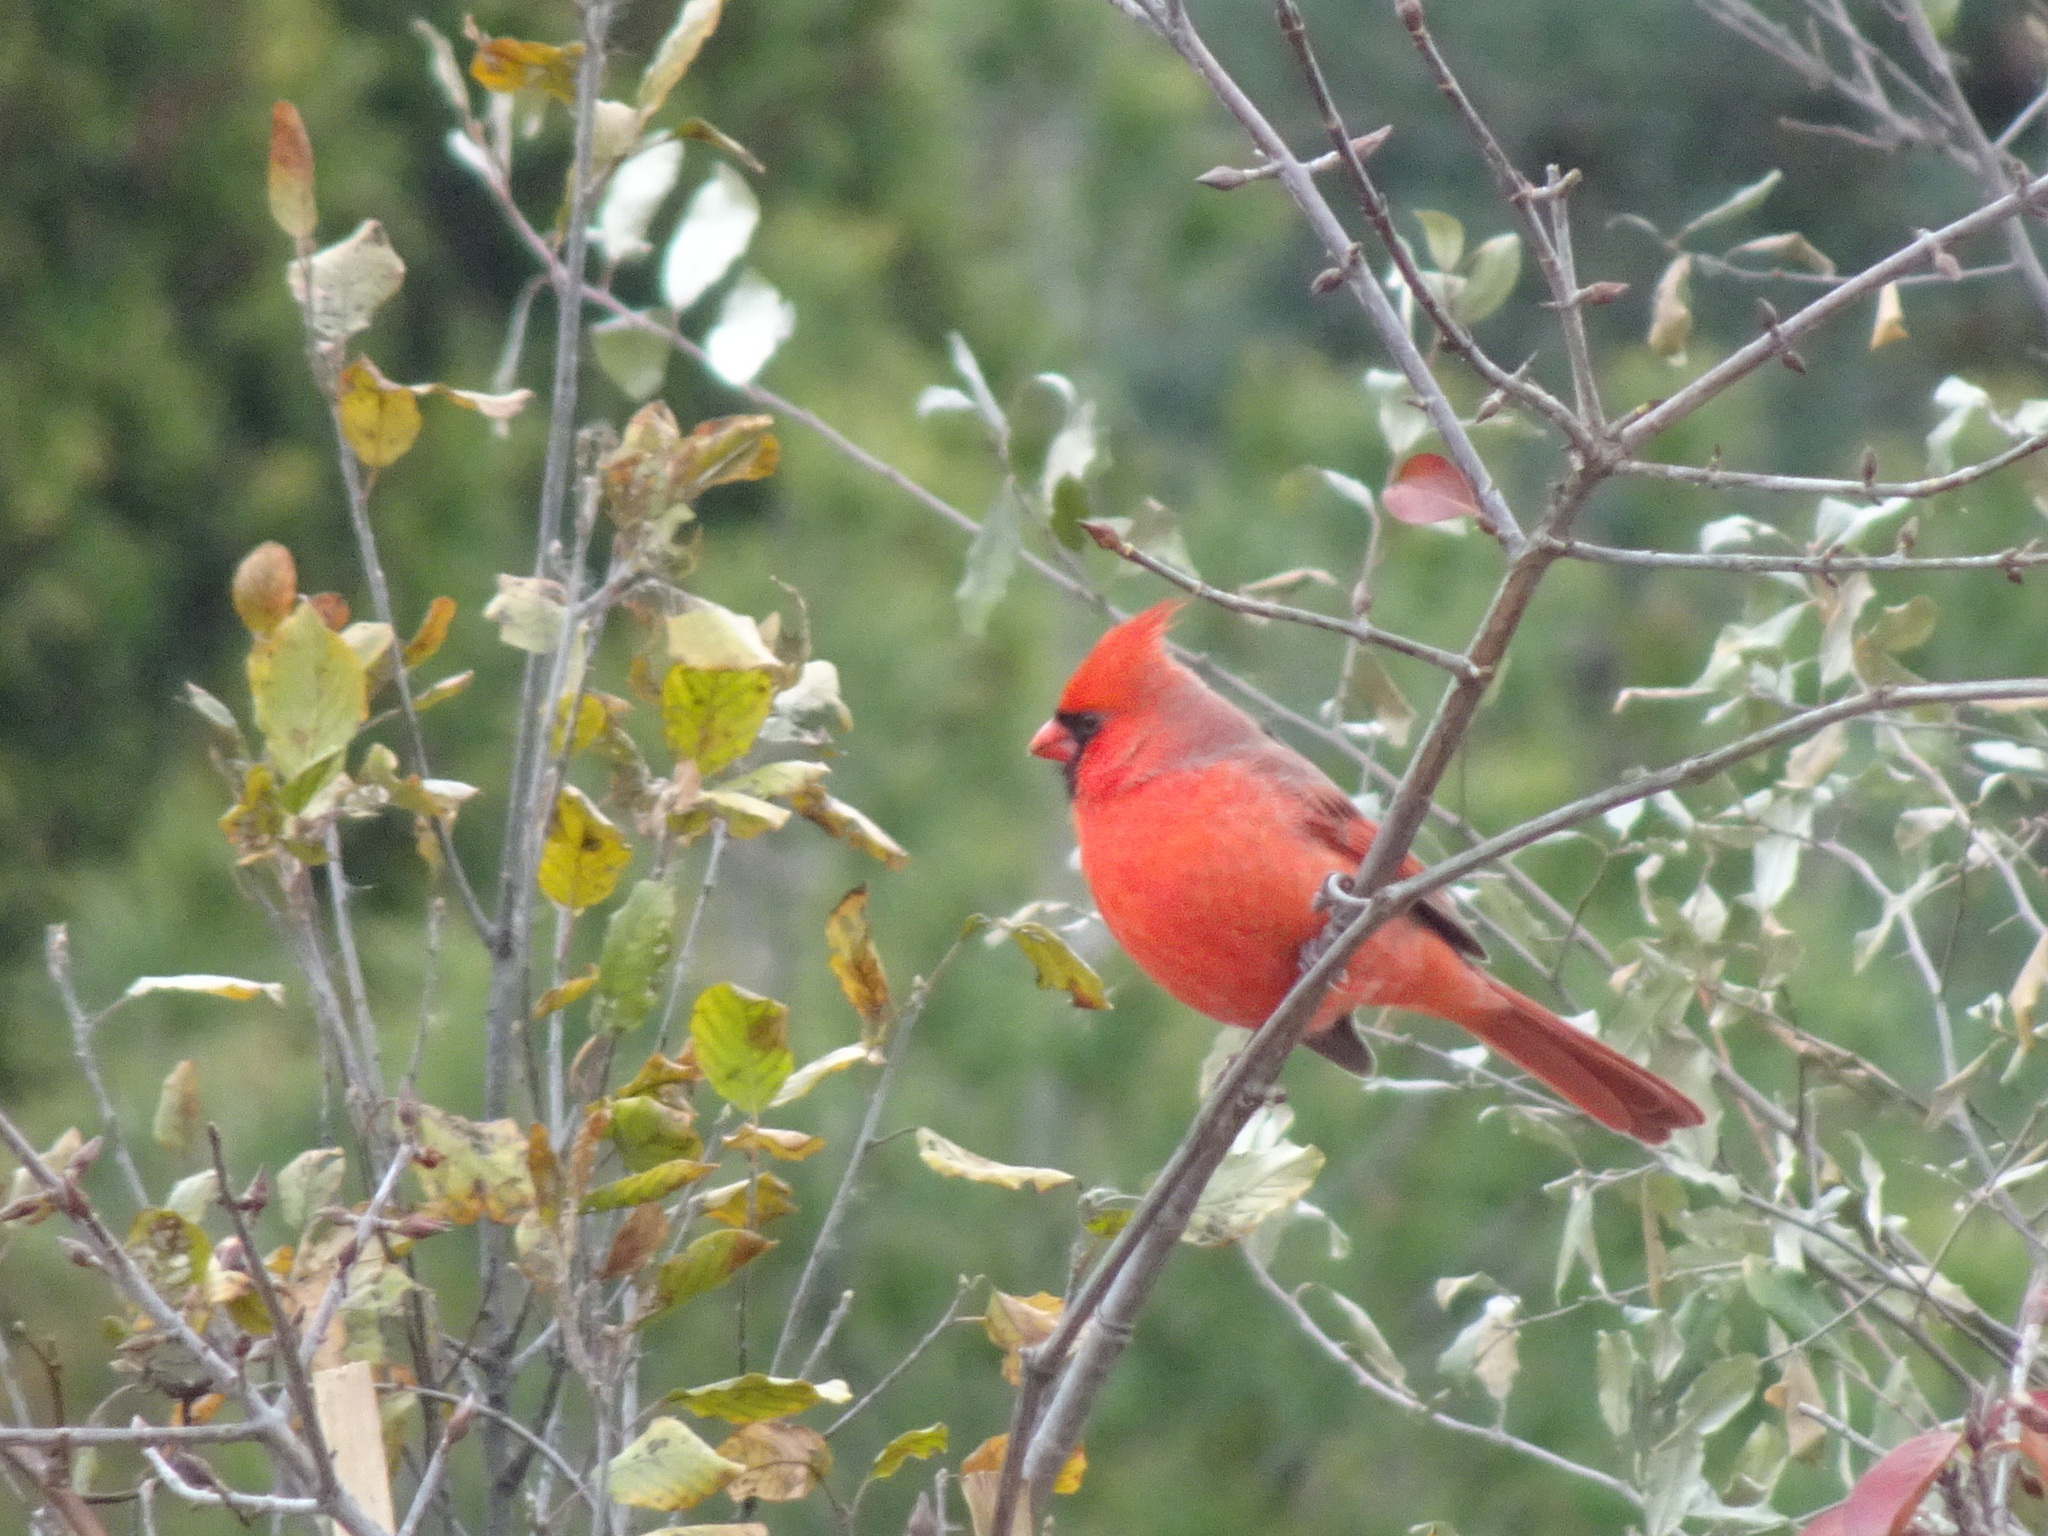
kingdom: Animalia
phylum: Chordata
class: Aves
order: Passeriformes
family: Cardinalidae
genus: Cardinalis
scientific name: Cardinalis cardinalis
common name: Northern cardinal
